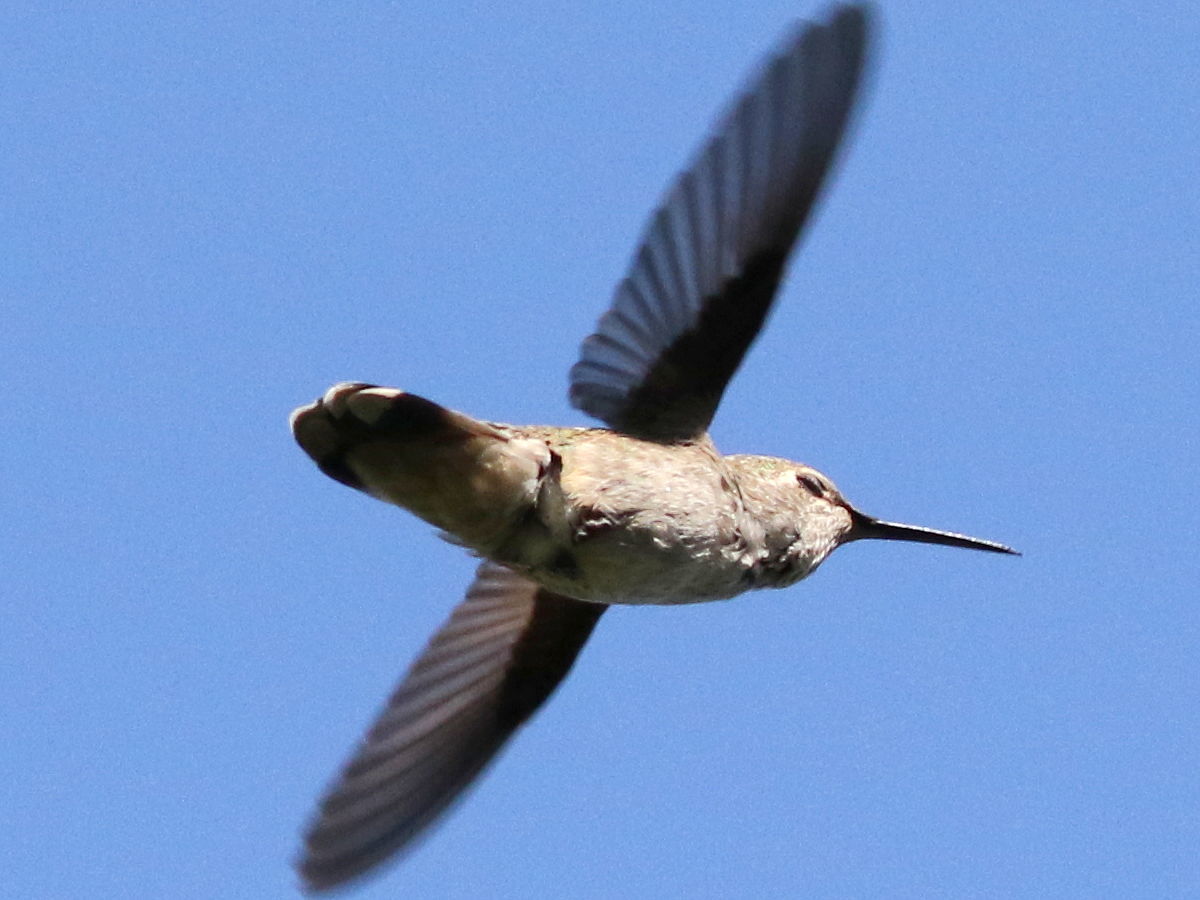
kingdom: Animalia
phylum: Chordata
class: Aves
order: Apodiformes
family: Trochilidae
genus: Calypte
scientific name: Calypte anna
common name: Anna's hummingbird
